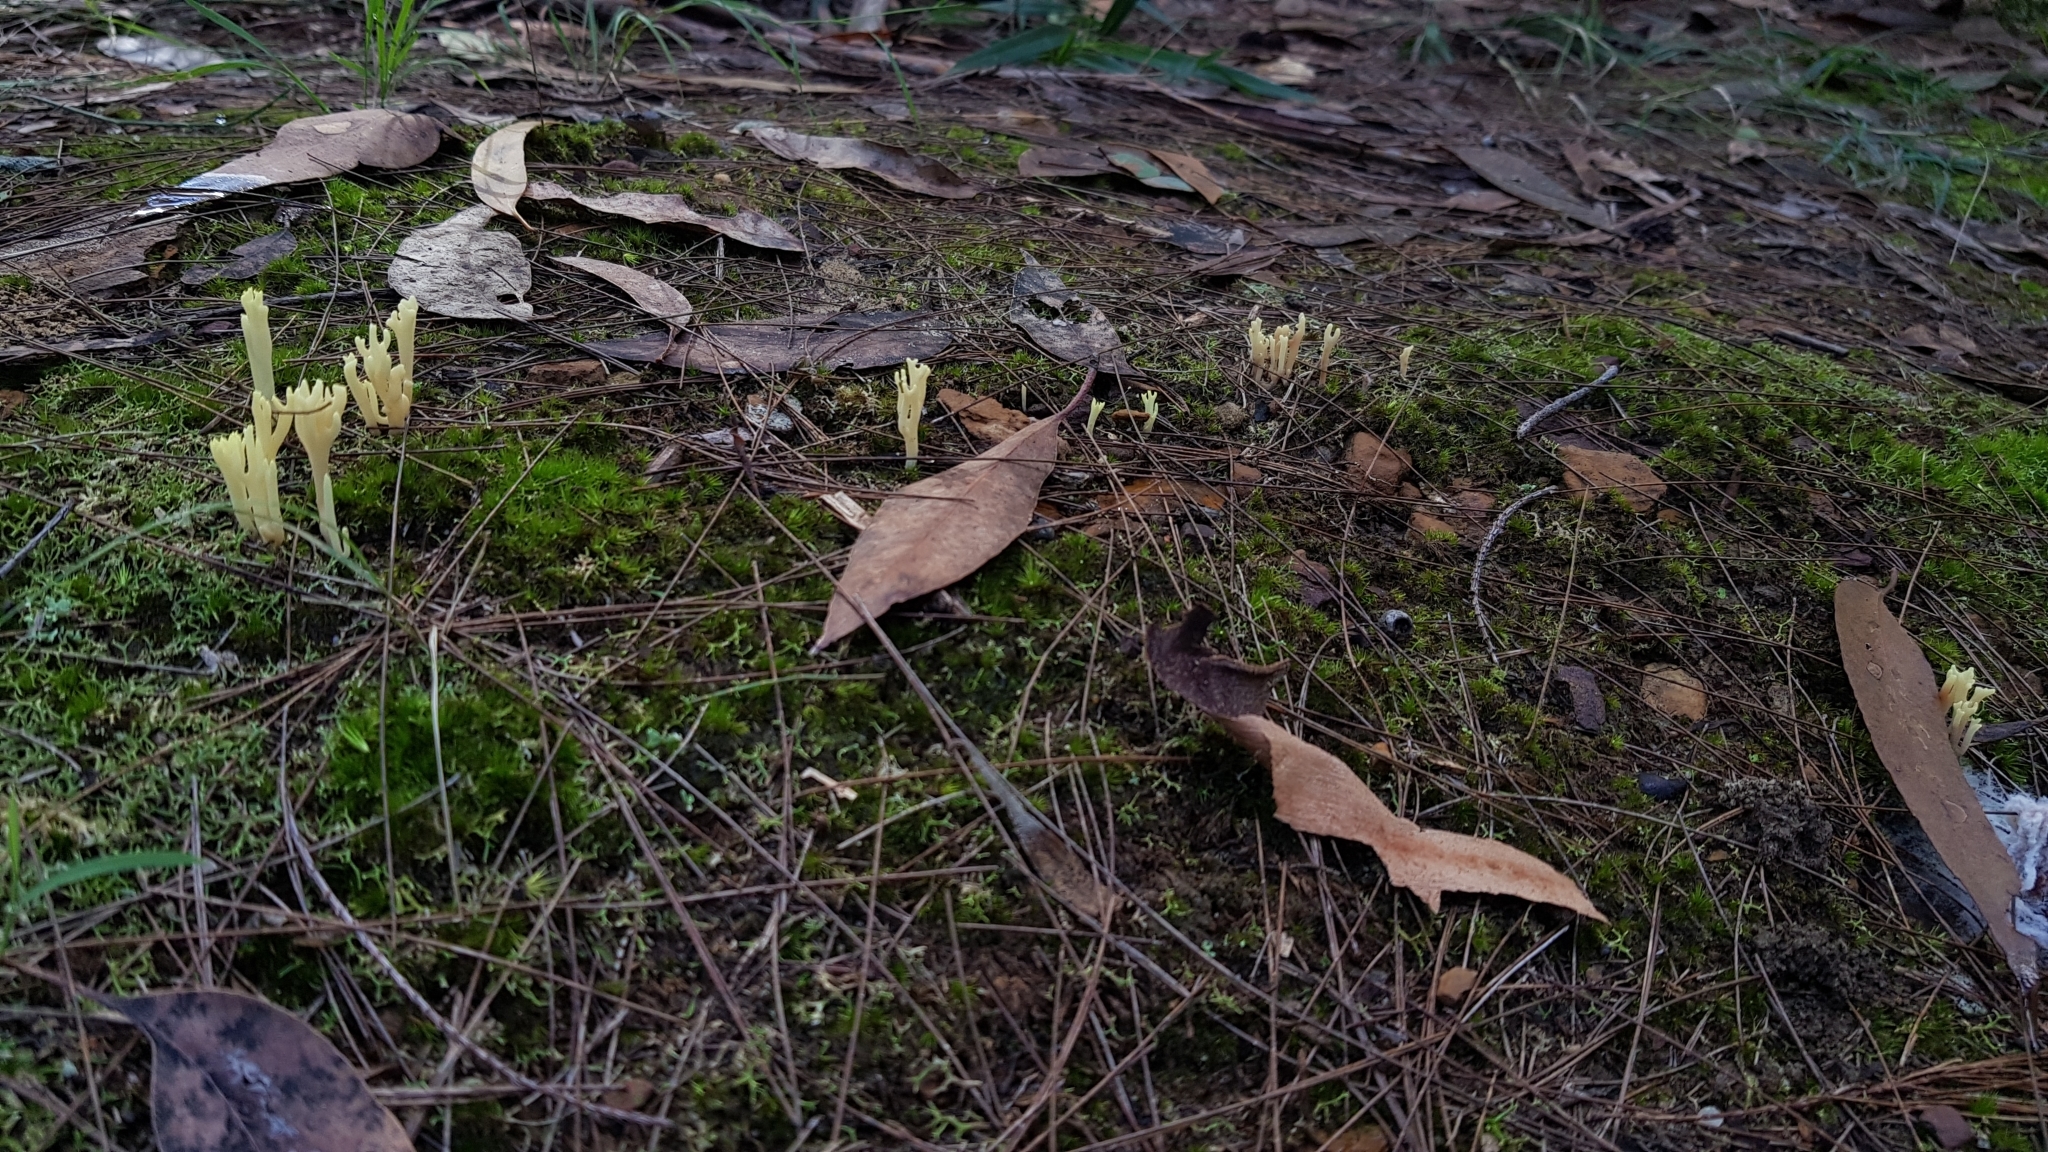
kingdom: Fungi
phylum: Basidiomycota
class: Agaricomycetes
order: Gomphales
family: Gomphaceae
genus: Ramaria
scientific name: Ramaria lorithamnus
